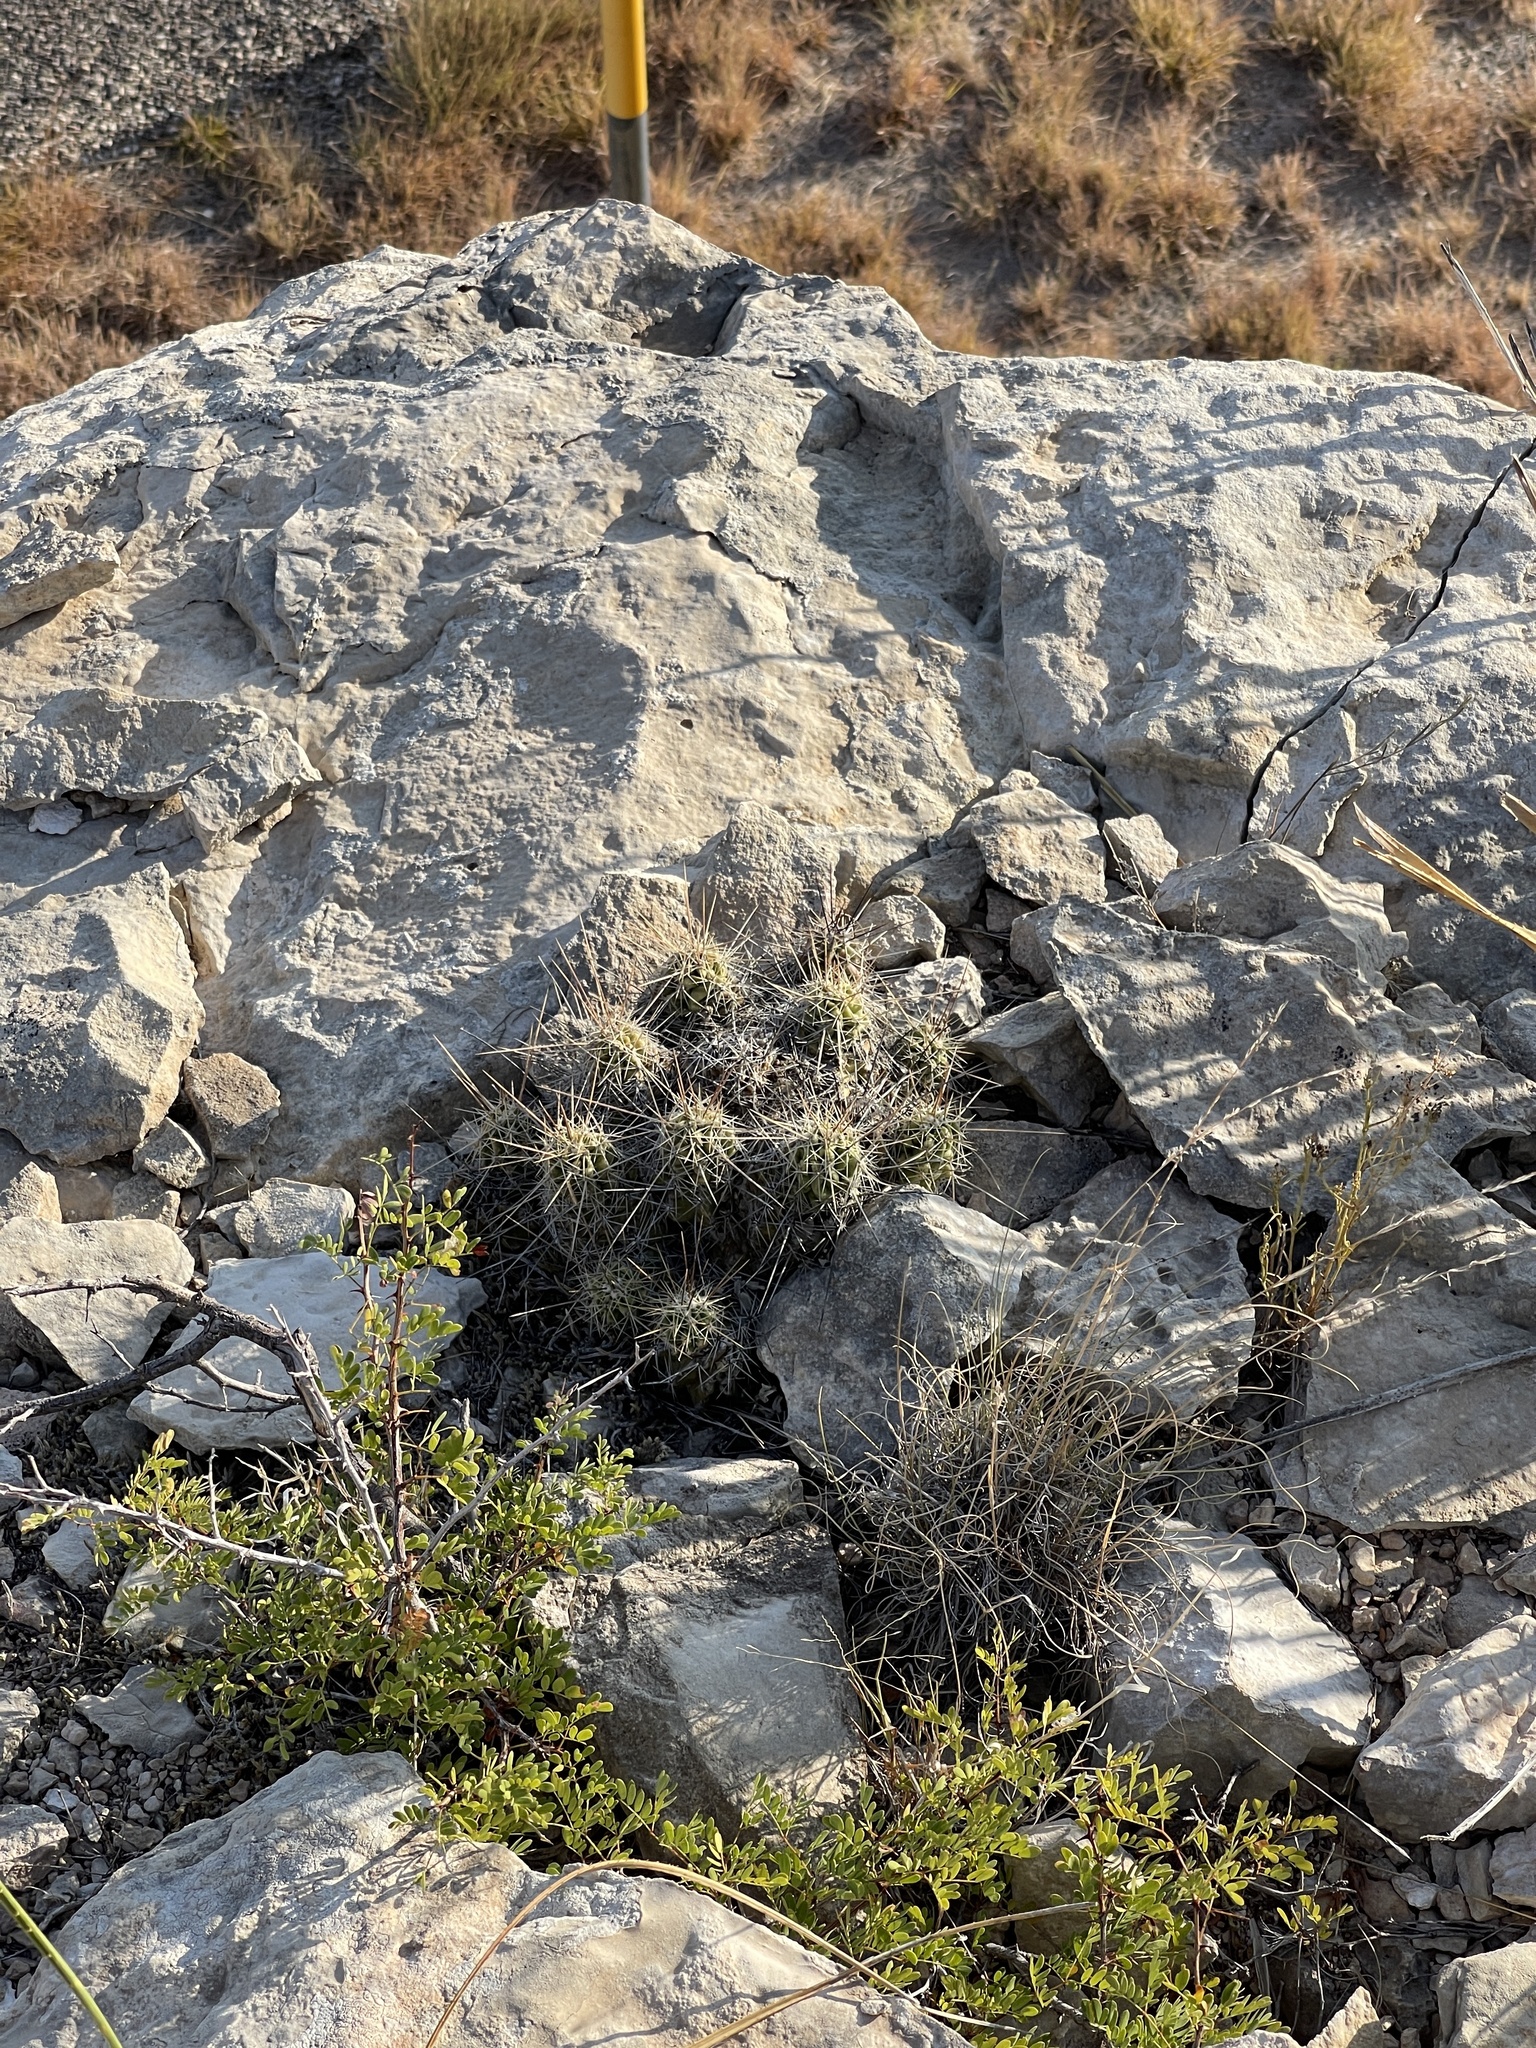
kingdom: Plantae
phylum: Tracheophyta
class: Magnoliopsida
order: Caryophyllales
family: Cactaceae
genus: Echinocereus
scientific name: Echinocereus enneacanthus
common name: Pitaya
